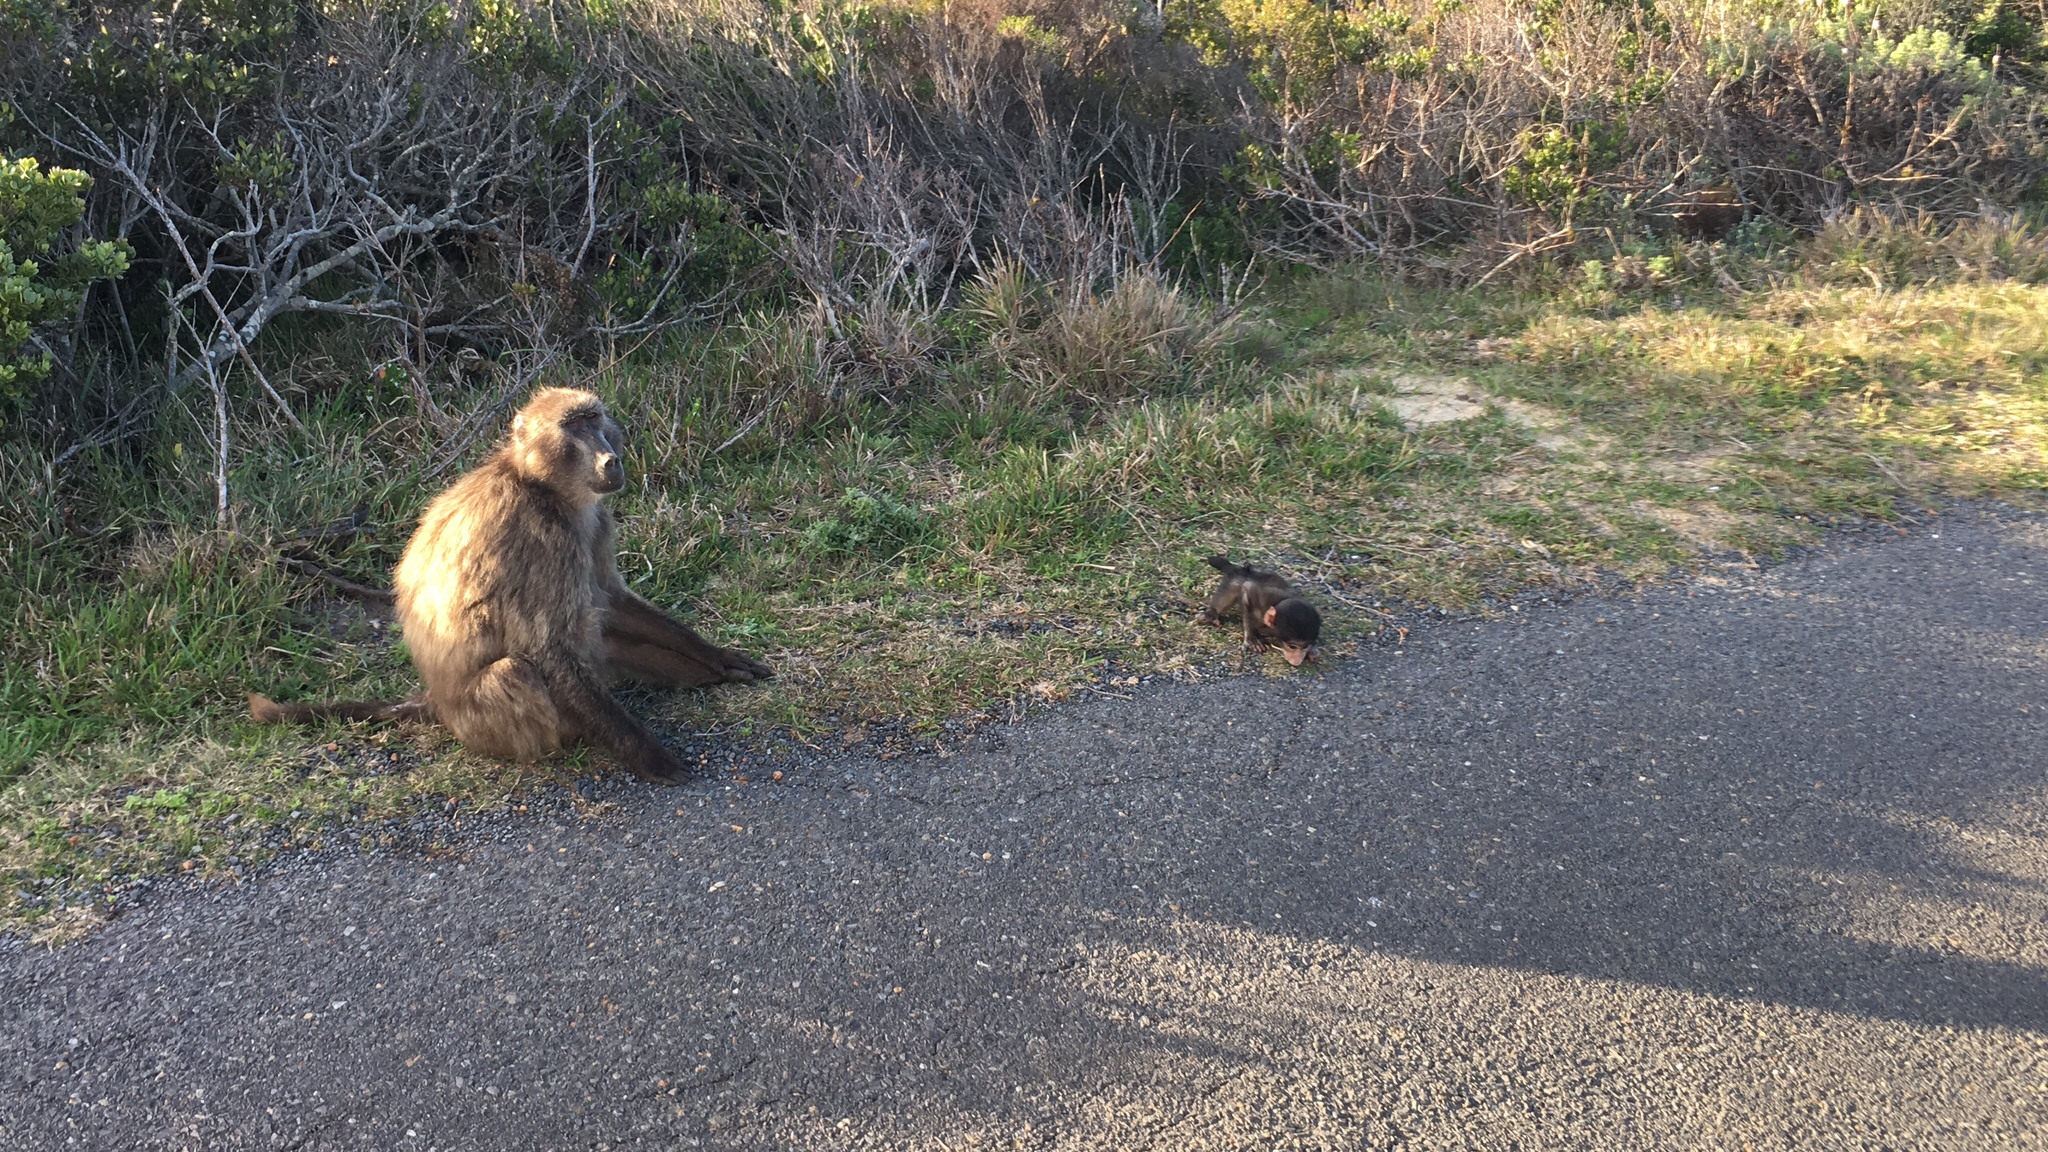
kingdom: Animalia
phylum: Chordata
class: Mammalia
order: Primates
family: Cercopithecidae
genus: Papio
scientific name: Papio ursinus
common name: Chacma baboon
